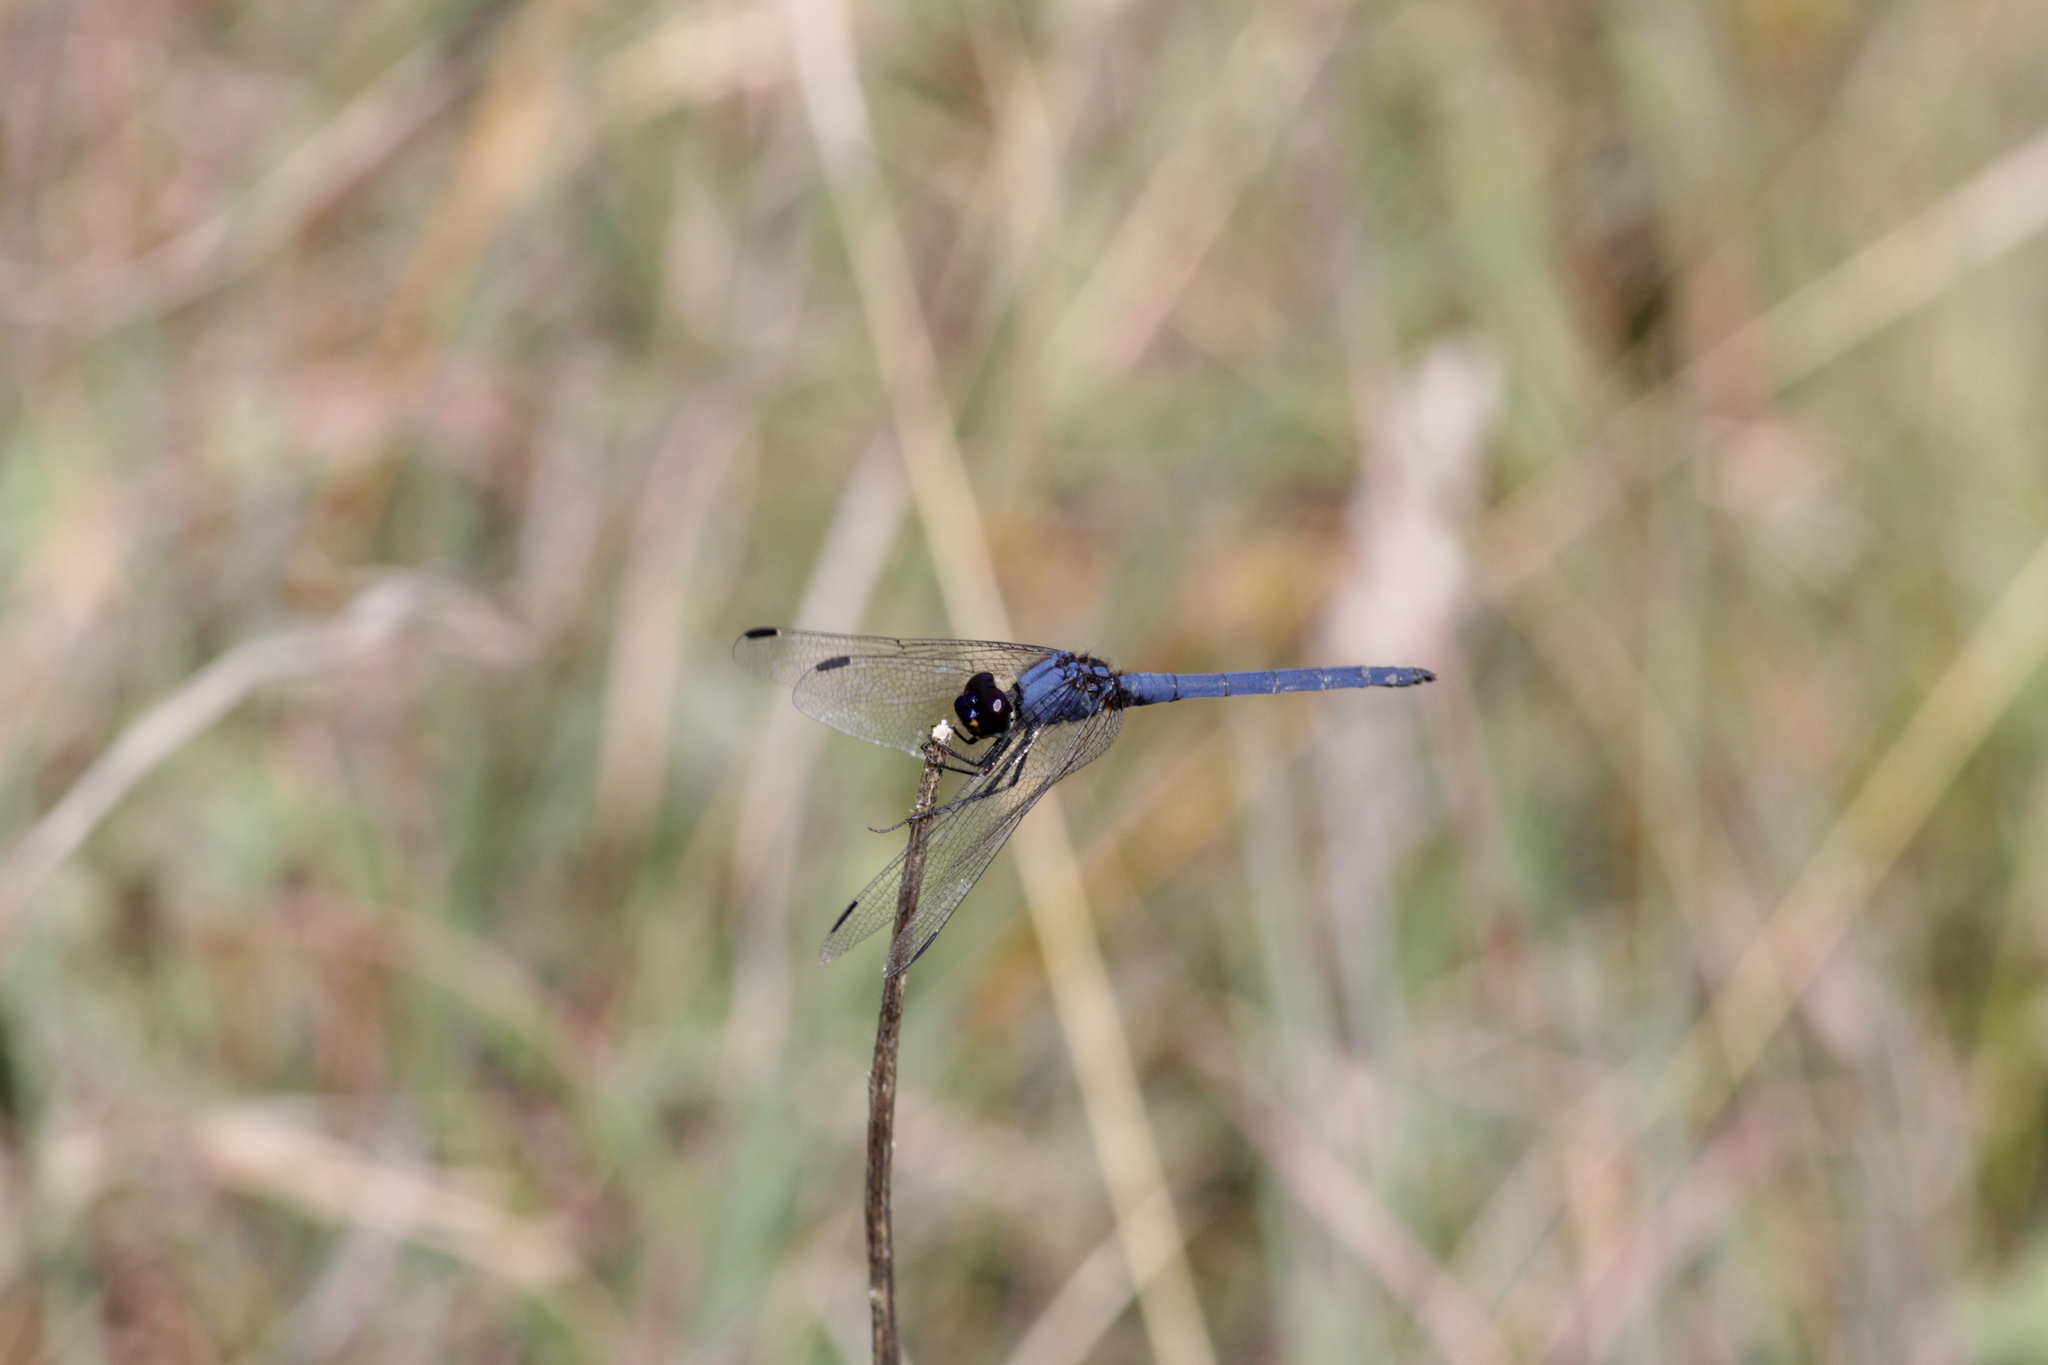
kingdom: Animalia
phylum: Arthropoda
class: Insecta
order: Odonata
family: Libellulidae
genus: Trithemis
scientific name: Trithemis dorsalis
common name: Highland dropwing
